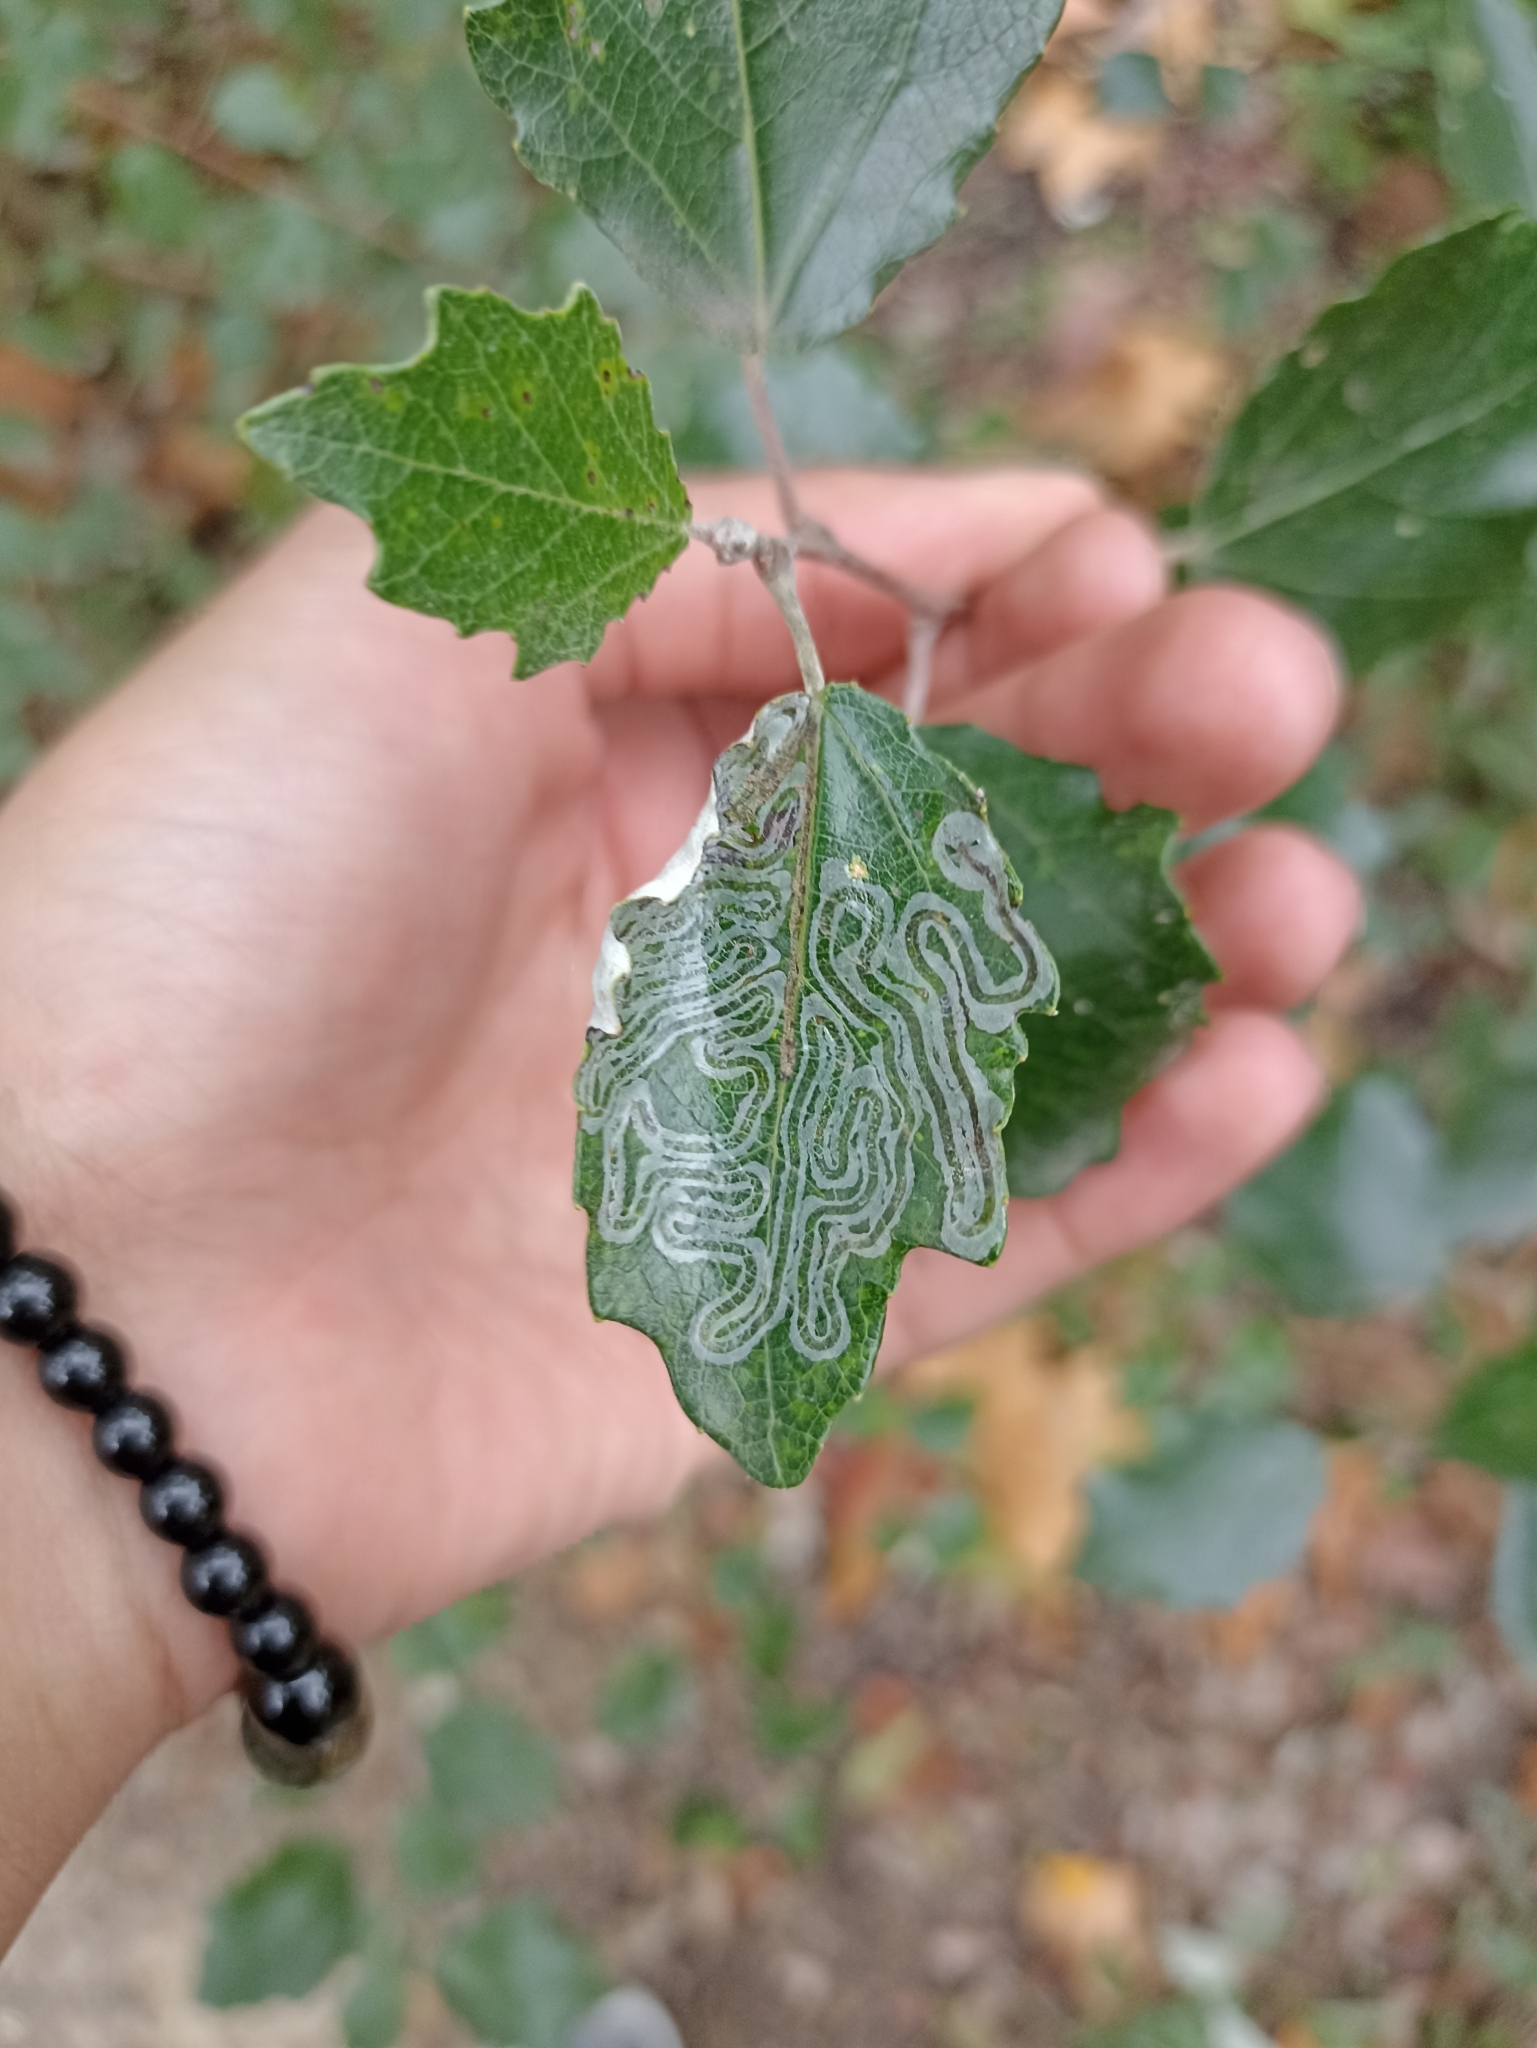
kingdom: Animalia
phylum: Arthropoda
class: Insecta
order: Lepidoptera
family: Gracillariidae
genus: Phyllocnistis
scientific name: Phyllocnistis labyrinthella
